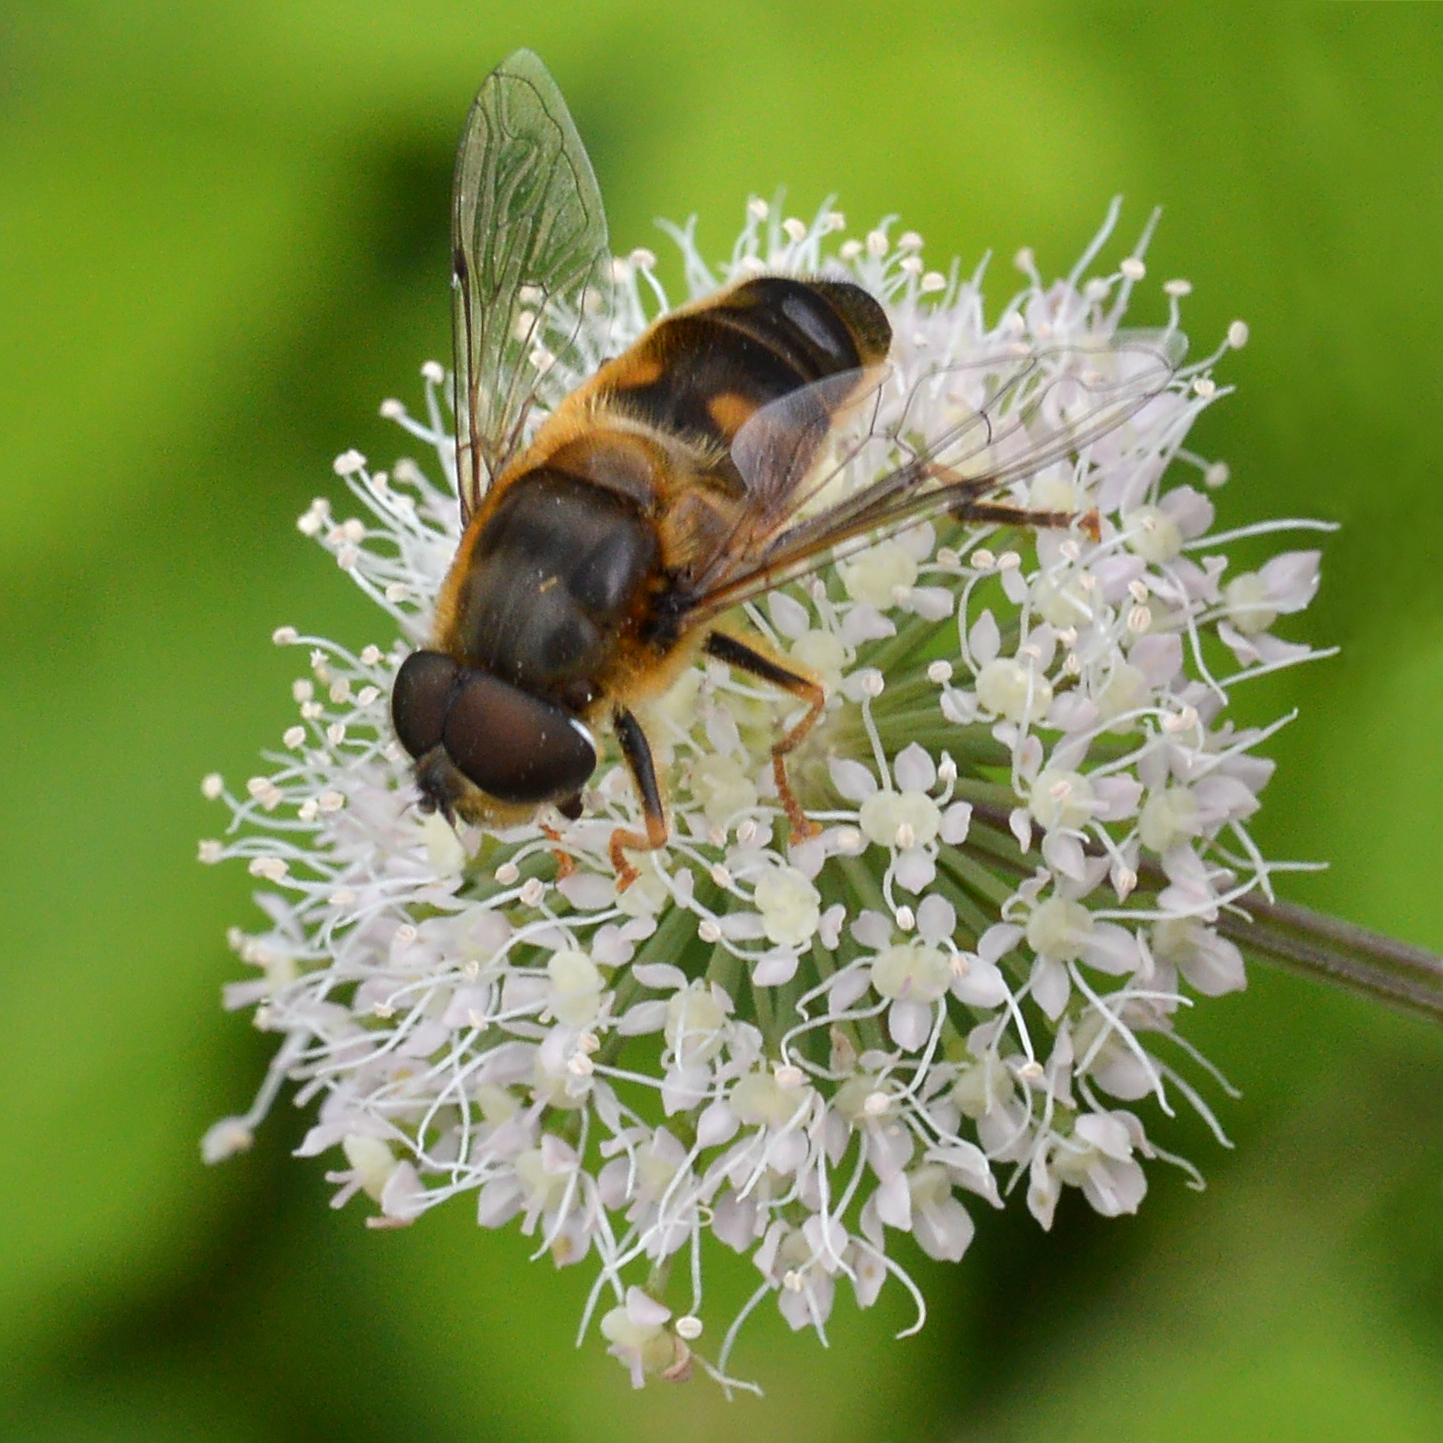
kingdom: Animalia
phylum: Arthropoda
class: Insecta
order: Diptera
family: Syrphidae
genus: Eristalis
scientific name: Eristalis pertinax
